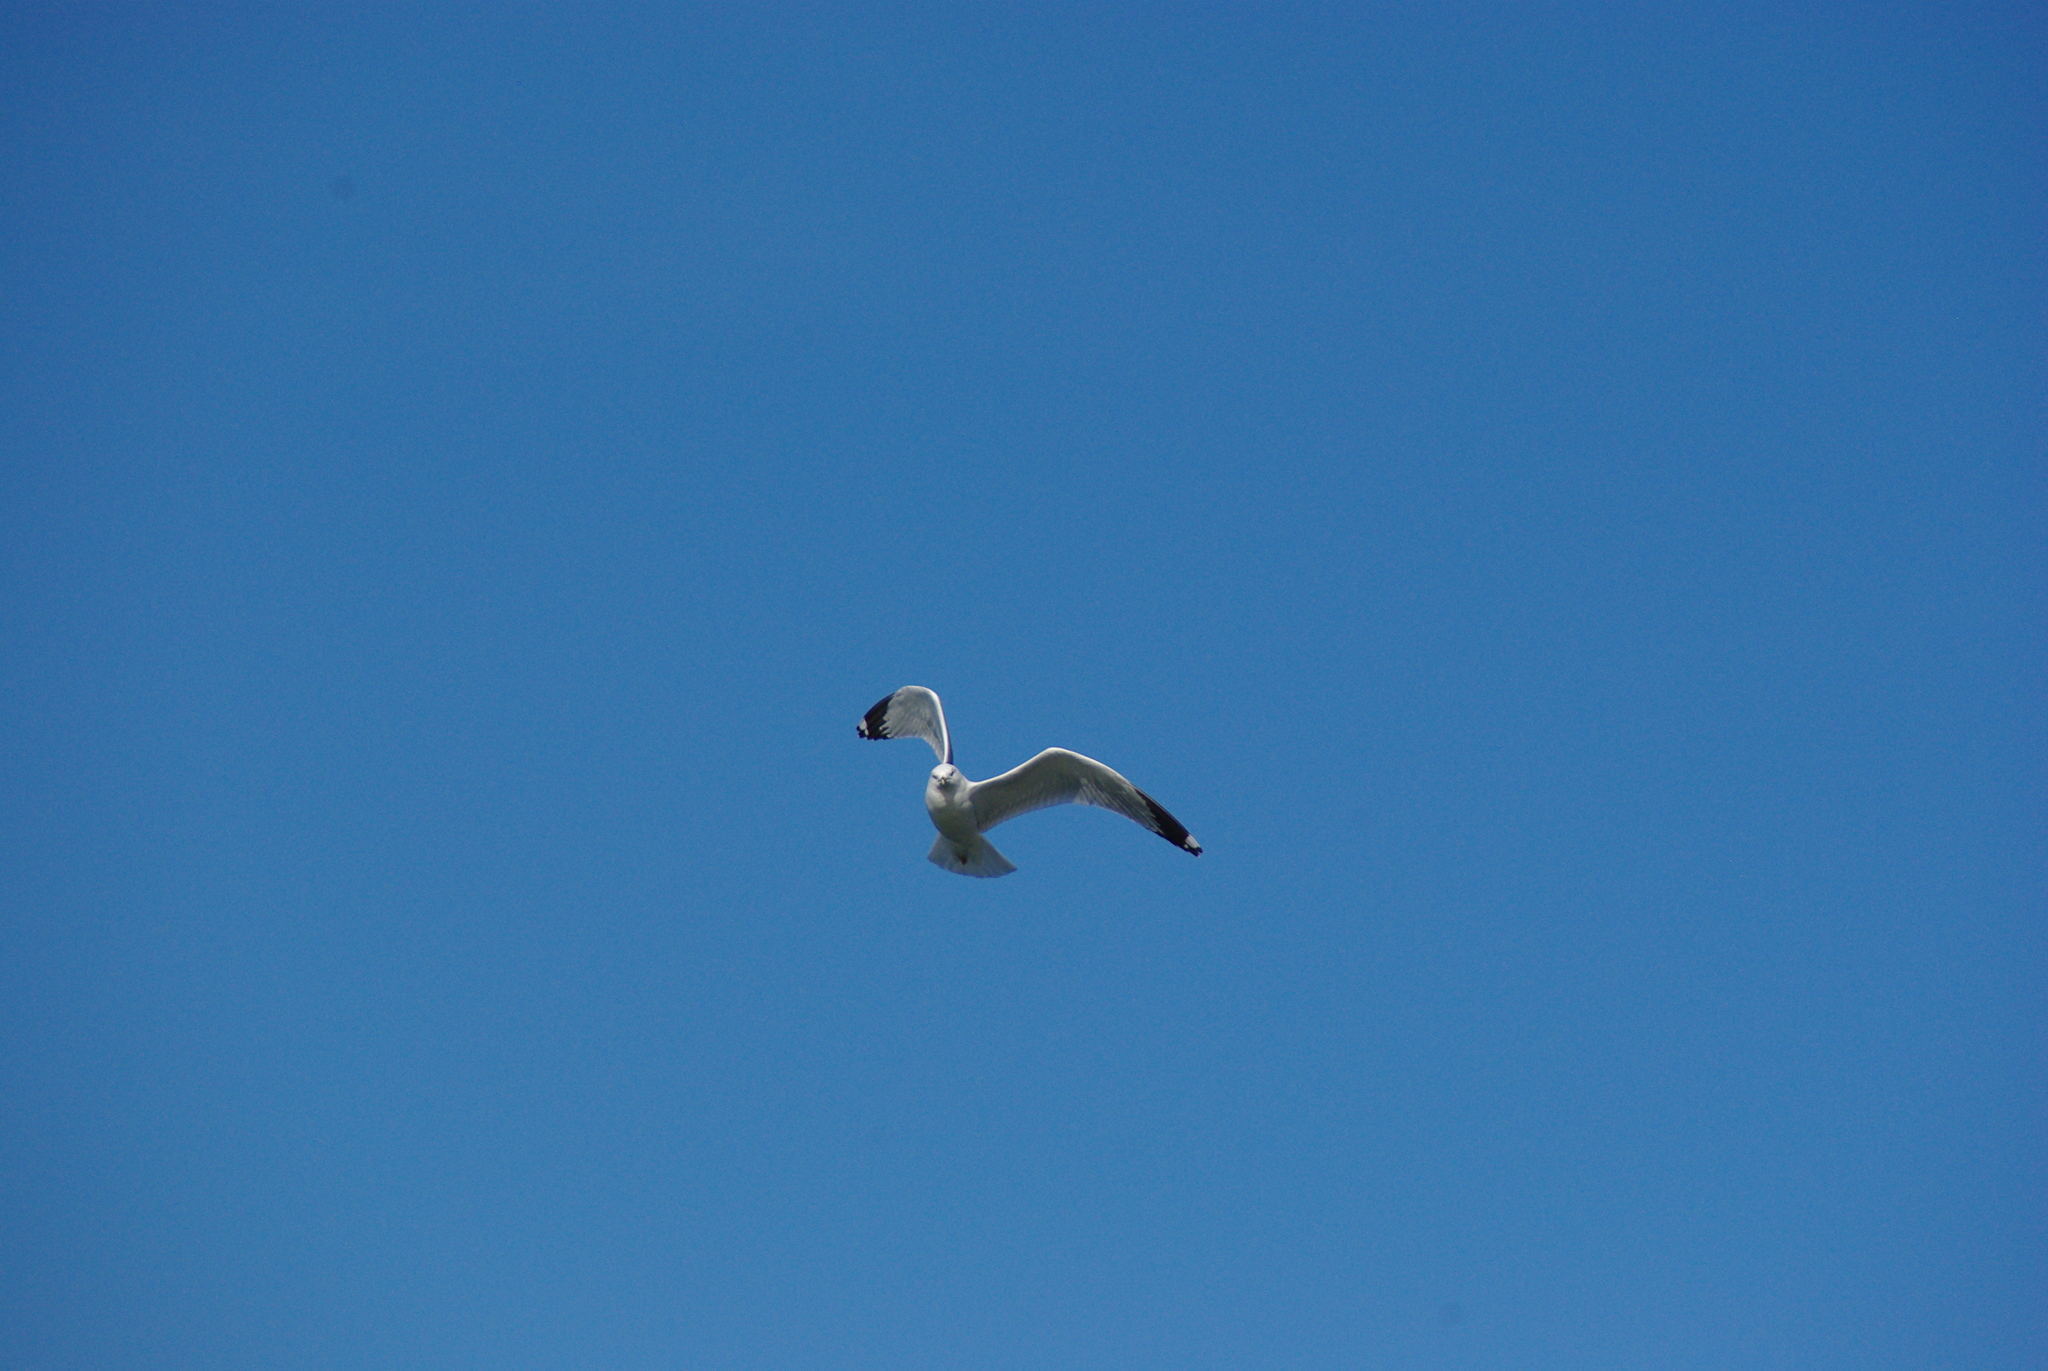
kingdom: Animalia
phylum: Chordata
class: Aves
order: Charadriiformes
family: Laridae
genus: Larus
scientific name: Larus delawarensis
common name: Ring-billed gull
